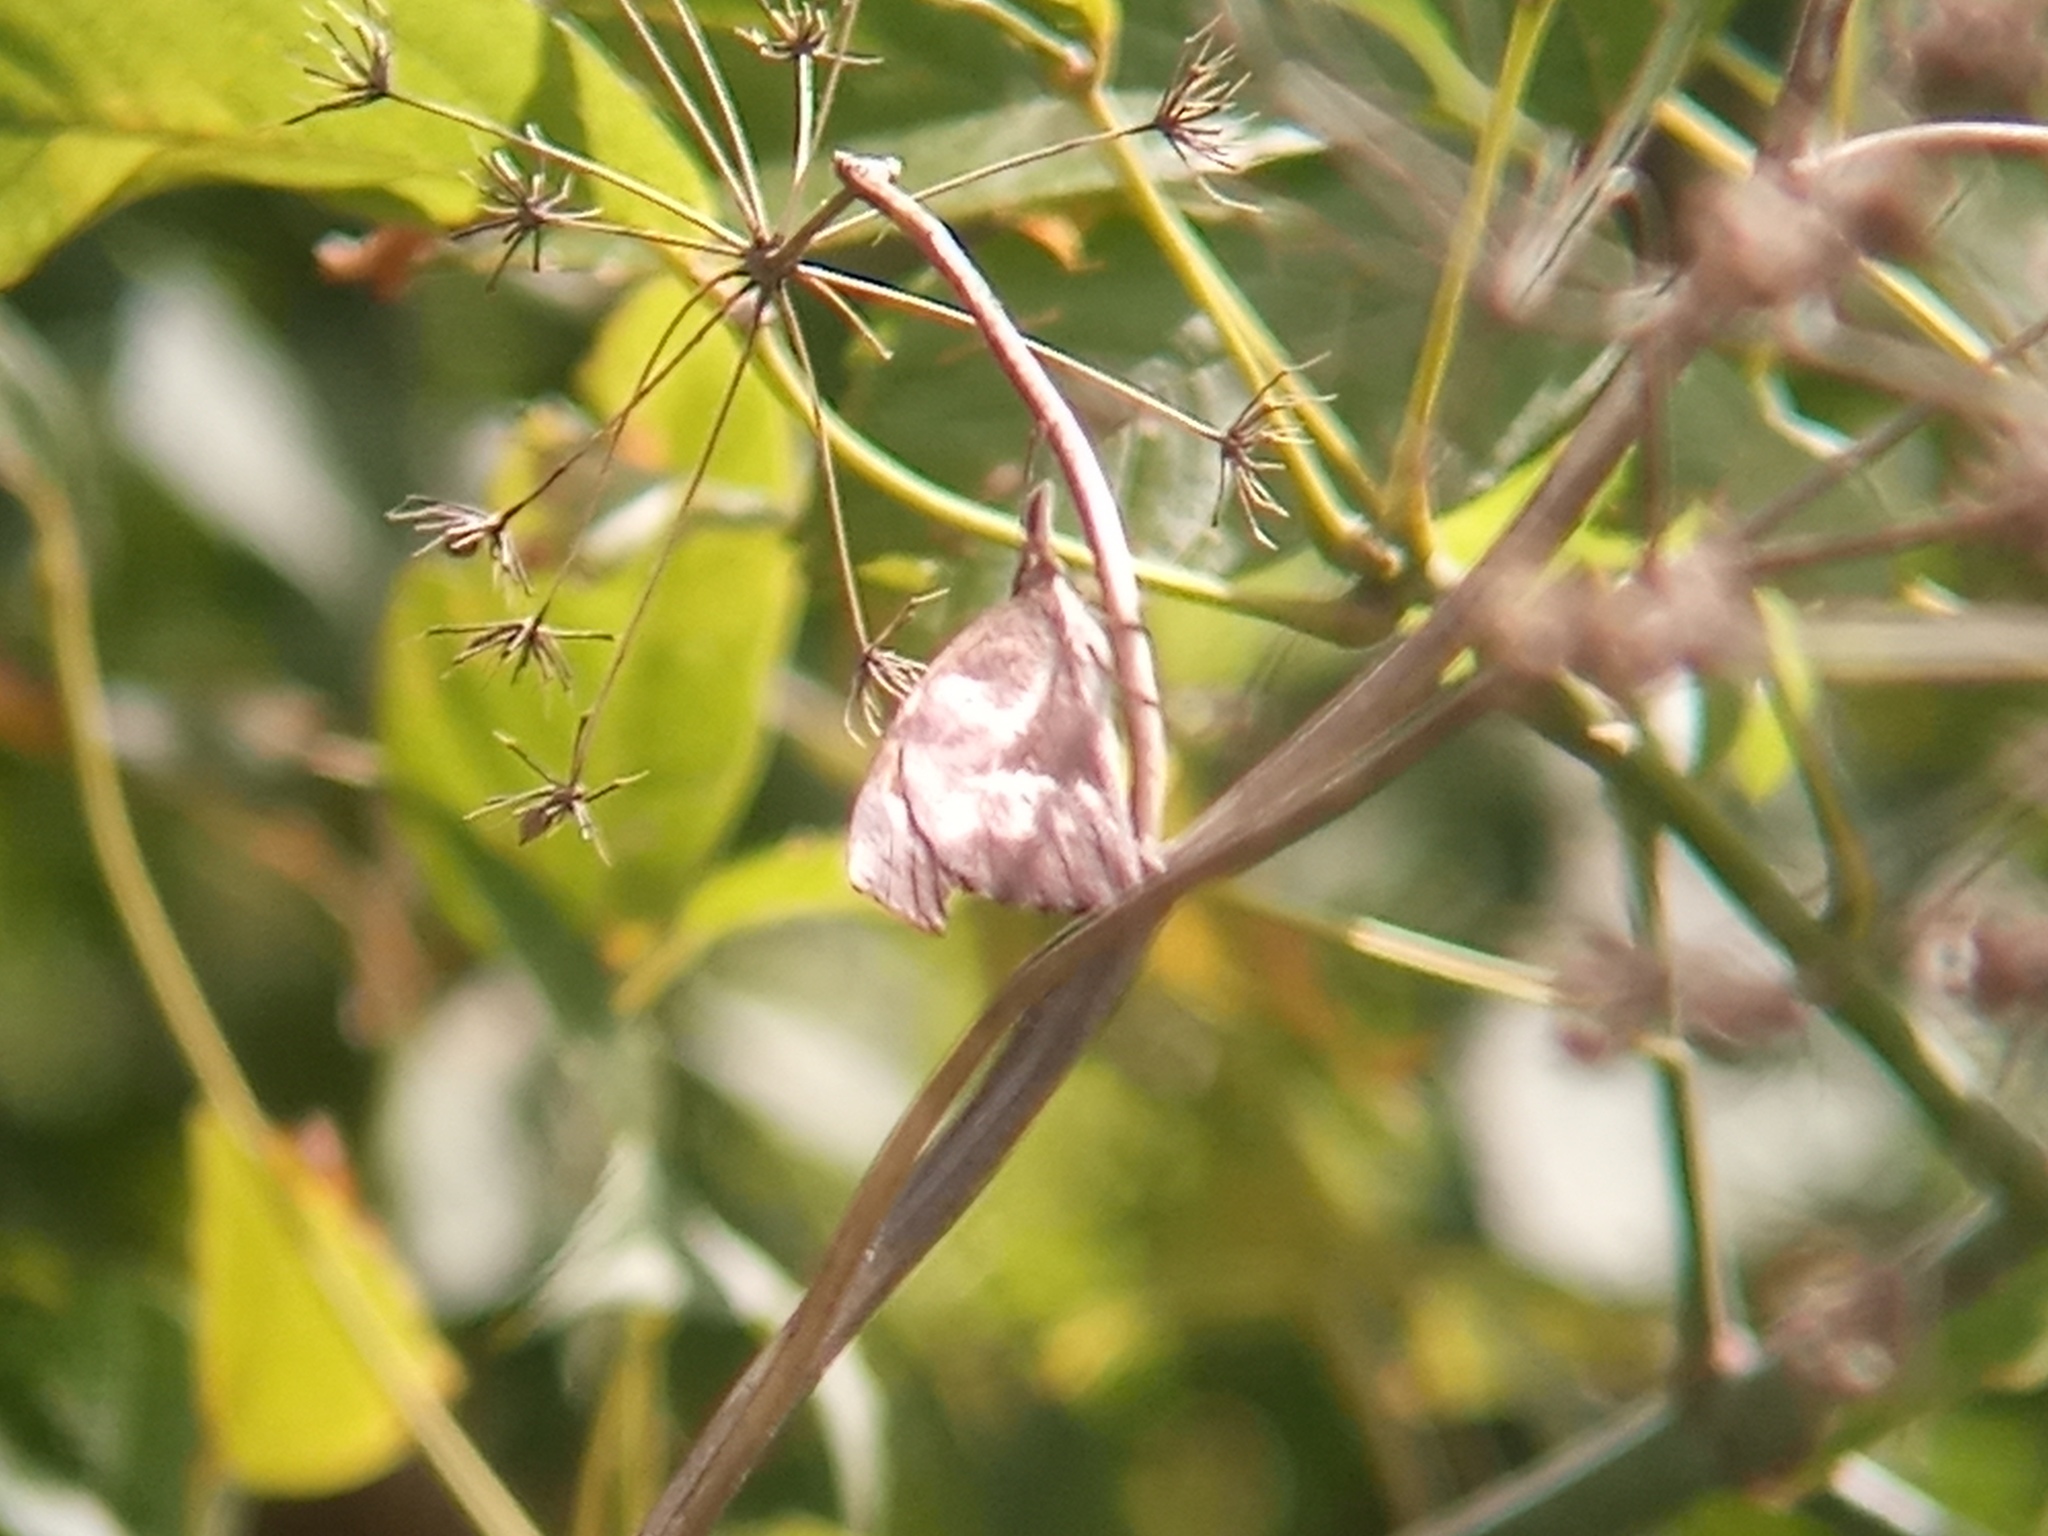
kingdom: Animalia
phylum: Arthropoda
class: Insecta
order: Lepidoptera
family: Nymphalidae
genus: Libytheana
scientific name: Libytheana carinenta
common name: American snout
